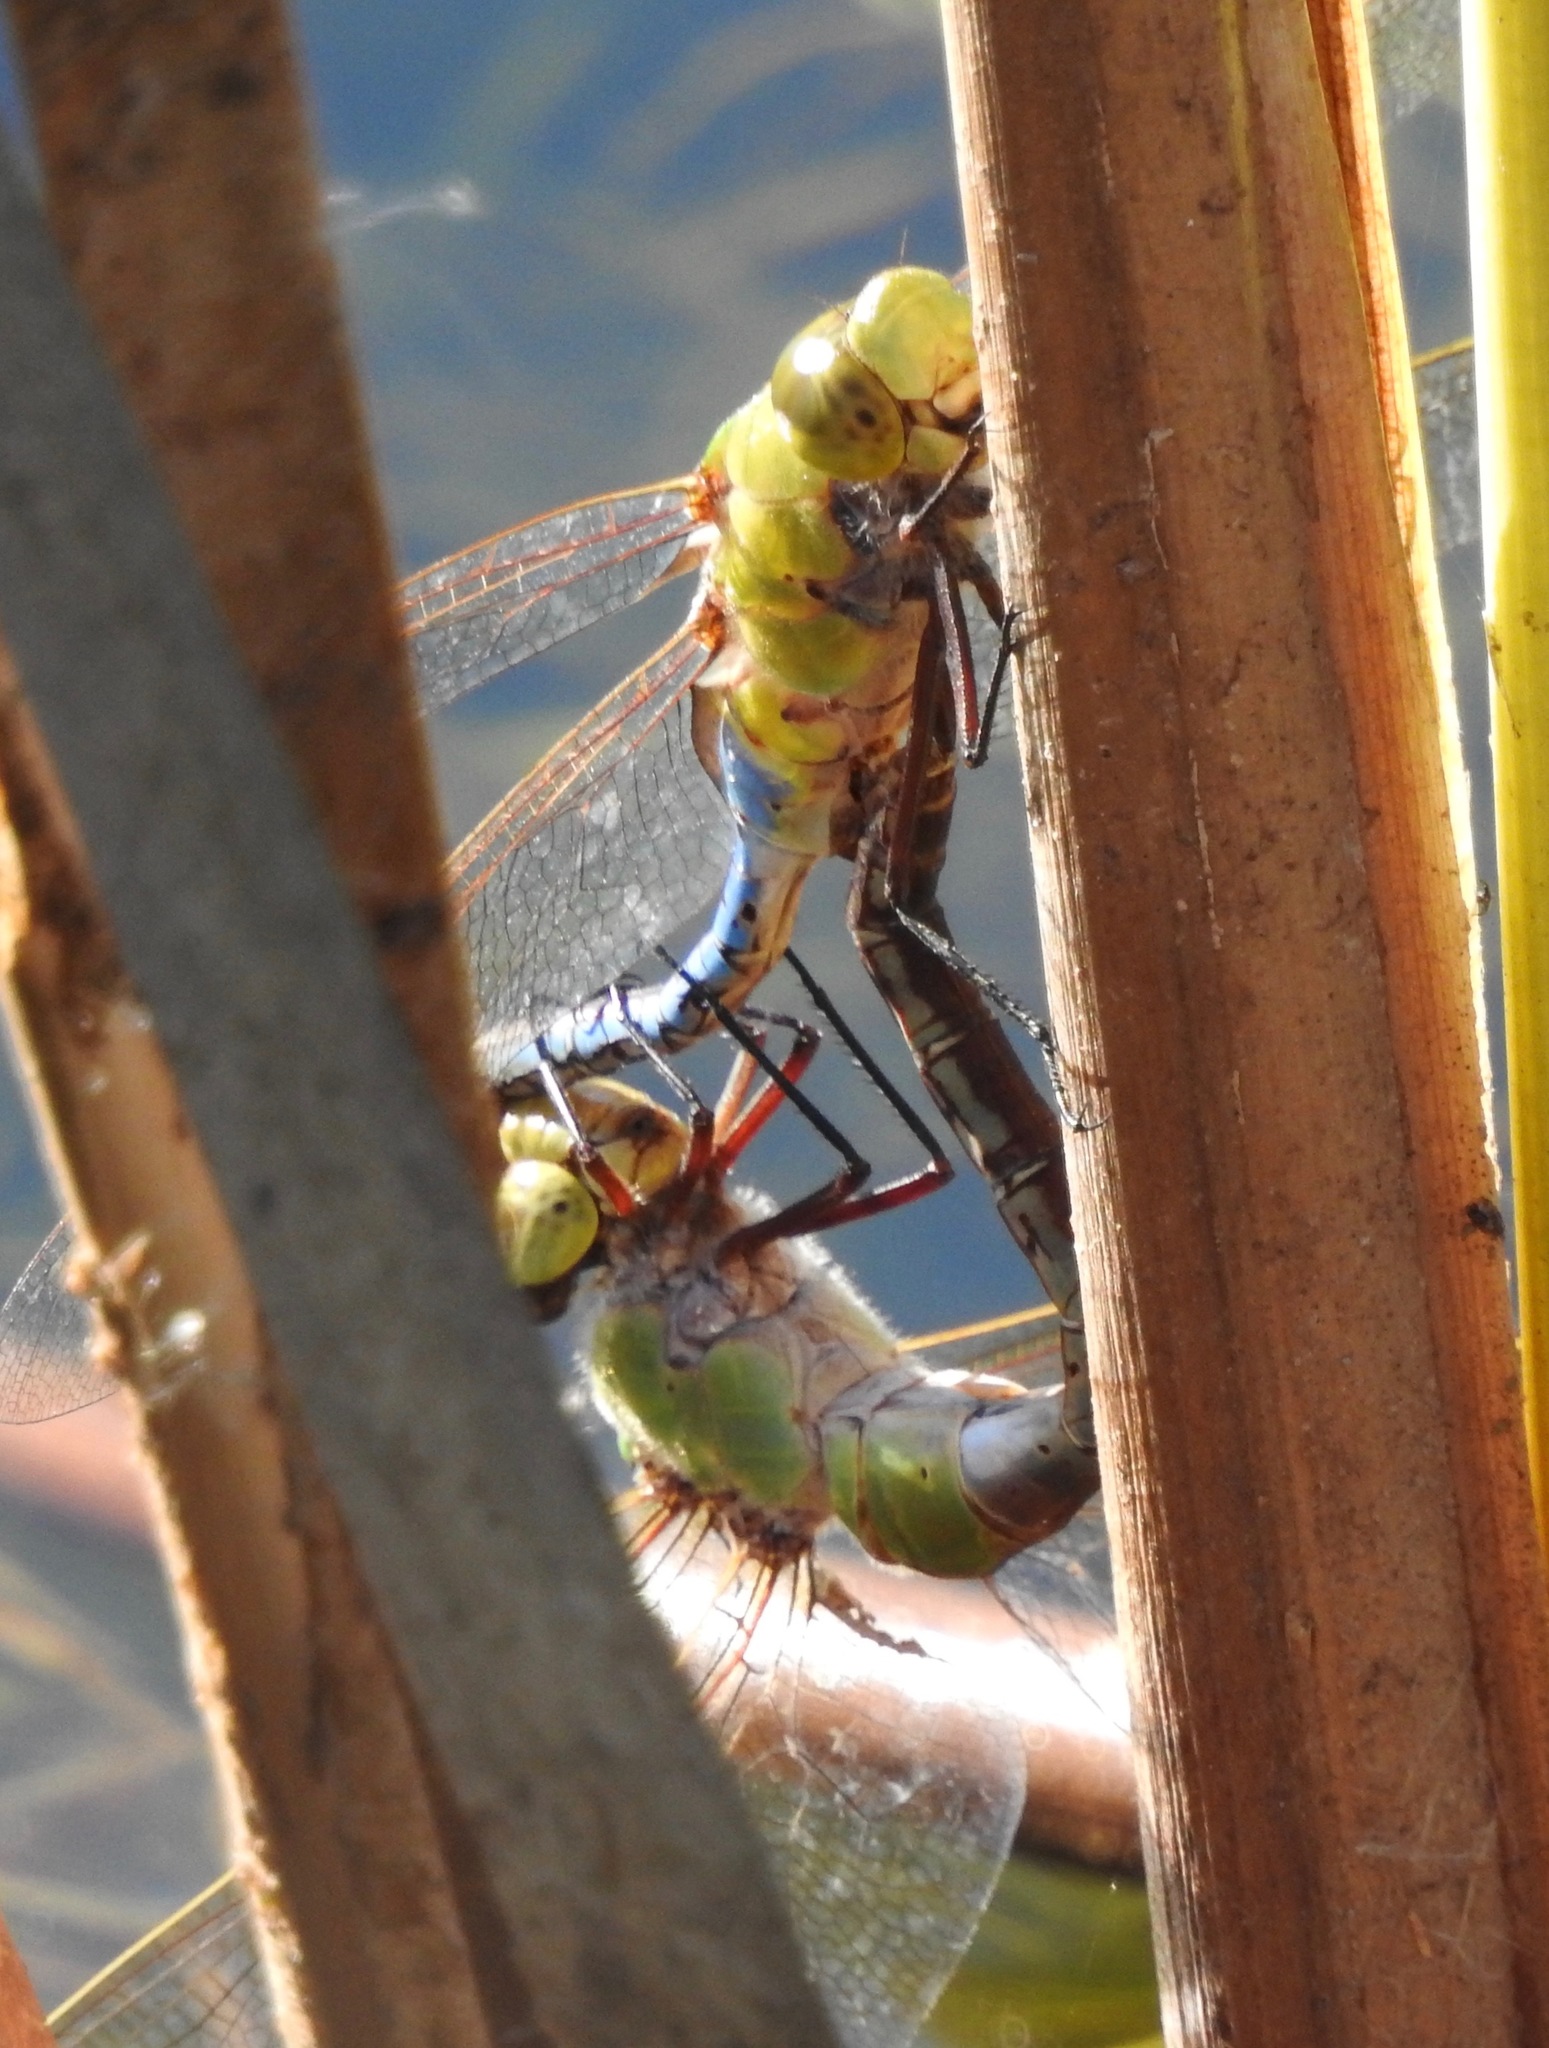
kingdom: Animalia
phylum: Arthropoda
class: Insecta
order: Odonata
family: Aeshnidae
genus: Anax
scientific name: Anax junius
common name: Common green darner
